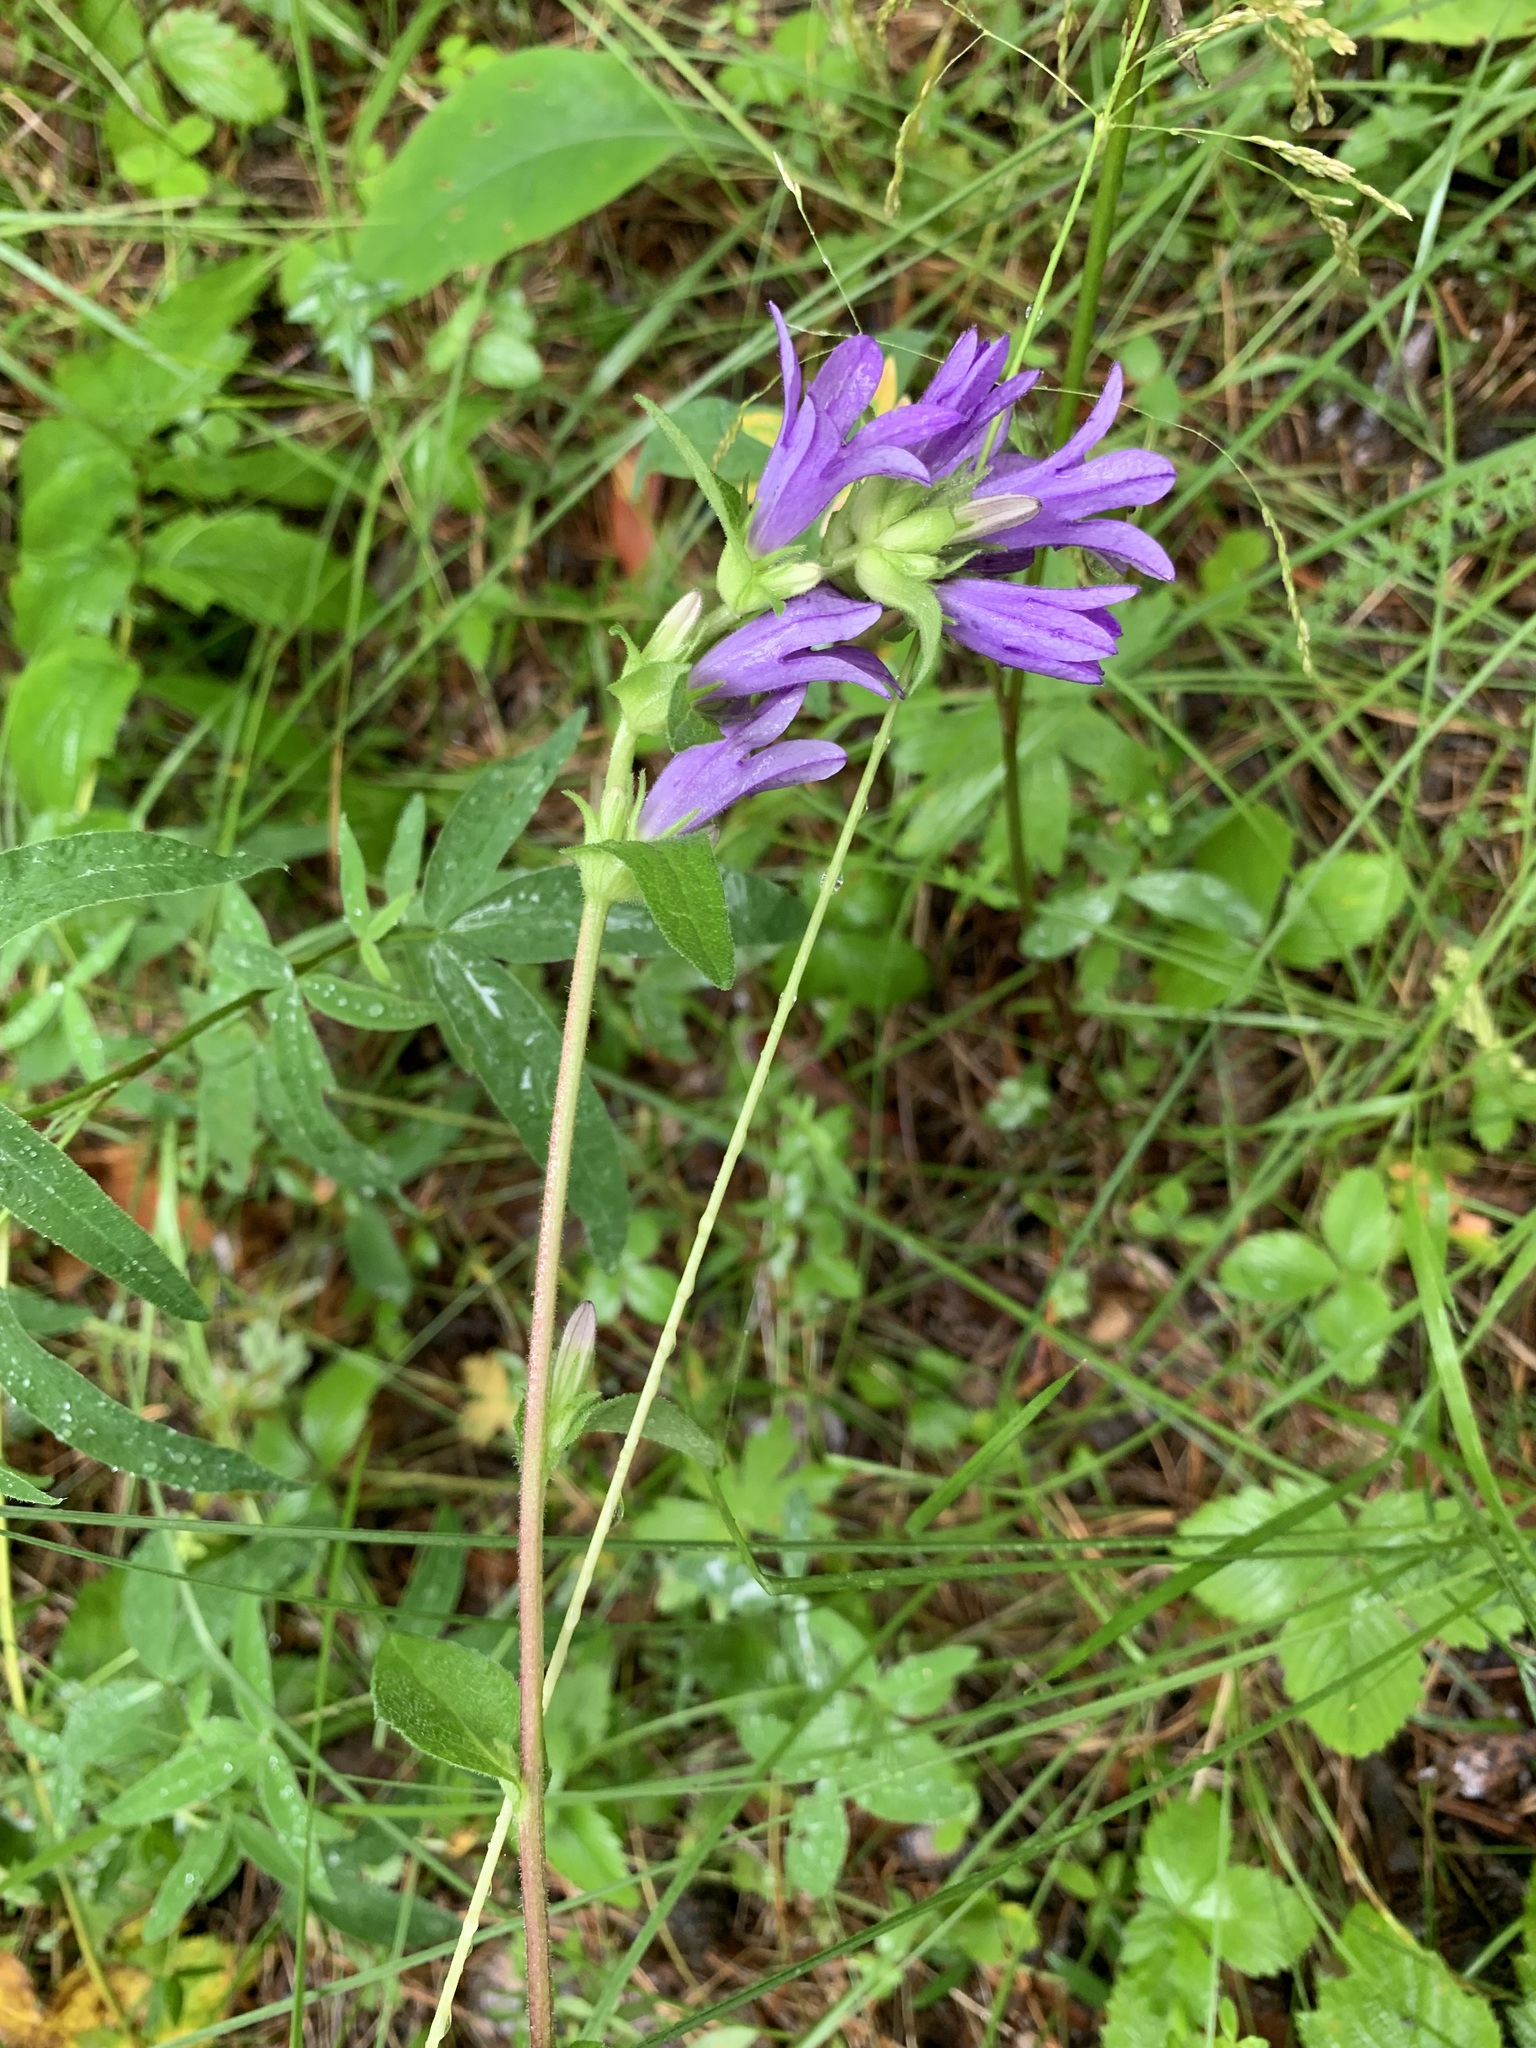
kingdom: Plantae
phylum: Tracheophyta
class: Magnoliopsida
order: Asterales
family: Campanulaceae
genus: Campanula
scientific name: Campanula glomerata
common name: Clustered bellflower
